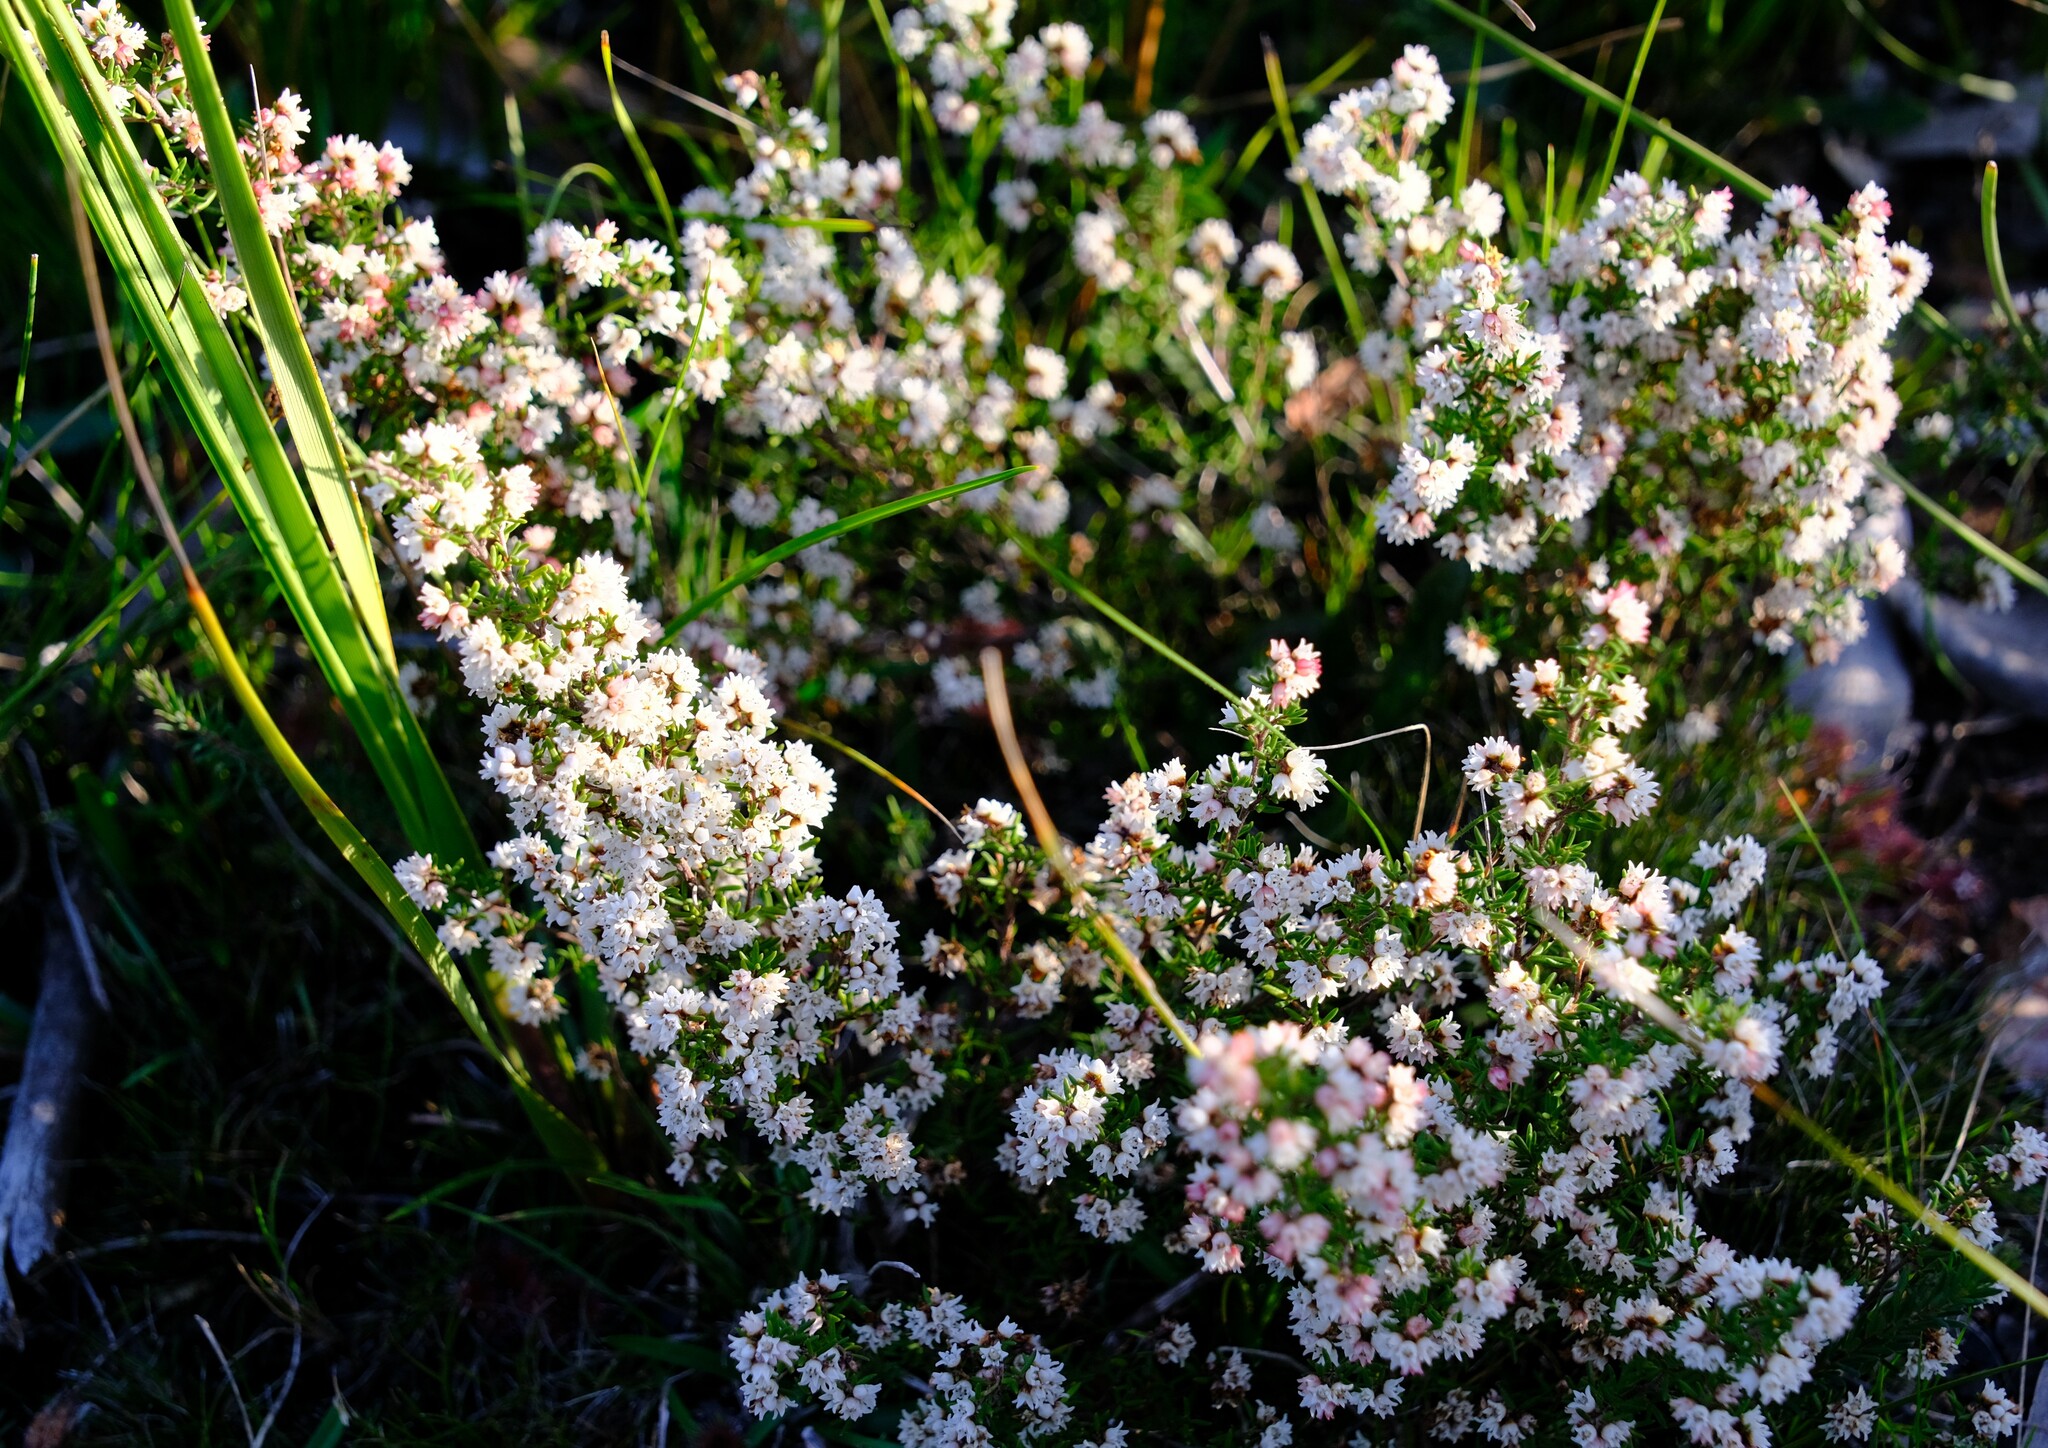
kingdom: Plantae
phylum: Tracheophyta
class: Magnoliopsida
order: Rosales
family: Rhamnaceae
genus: Cryptandra
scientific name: Cryptandra tomentosa
